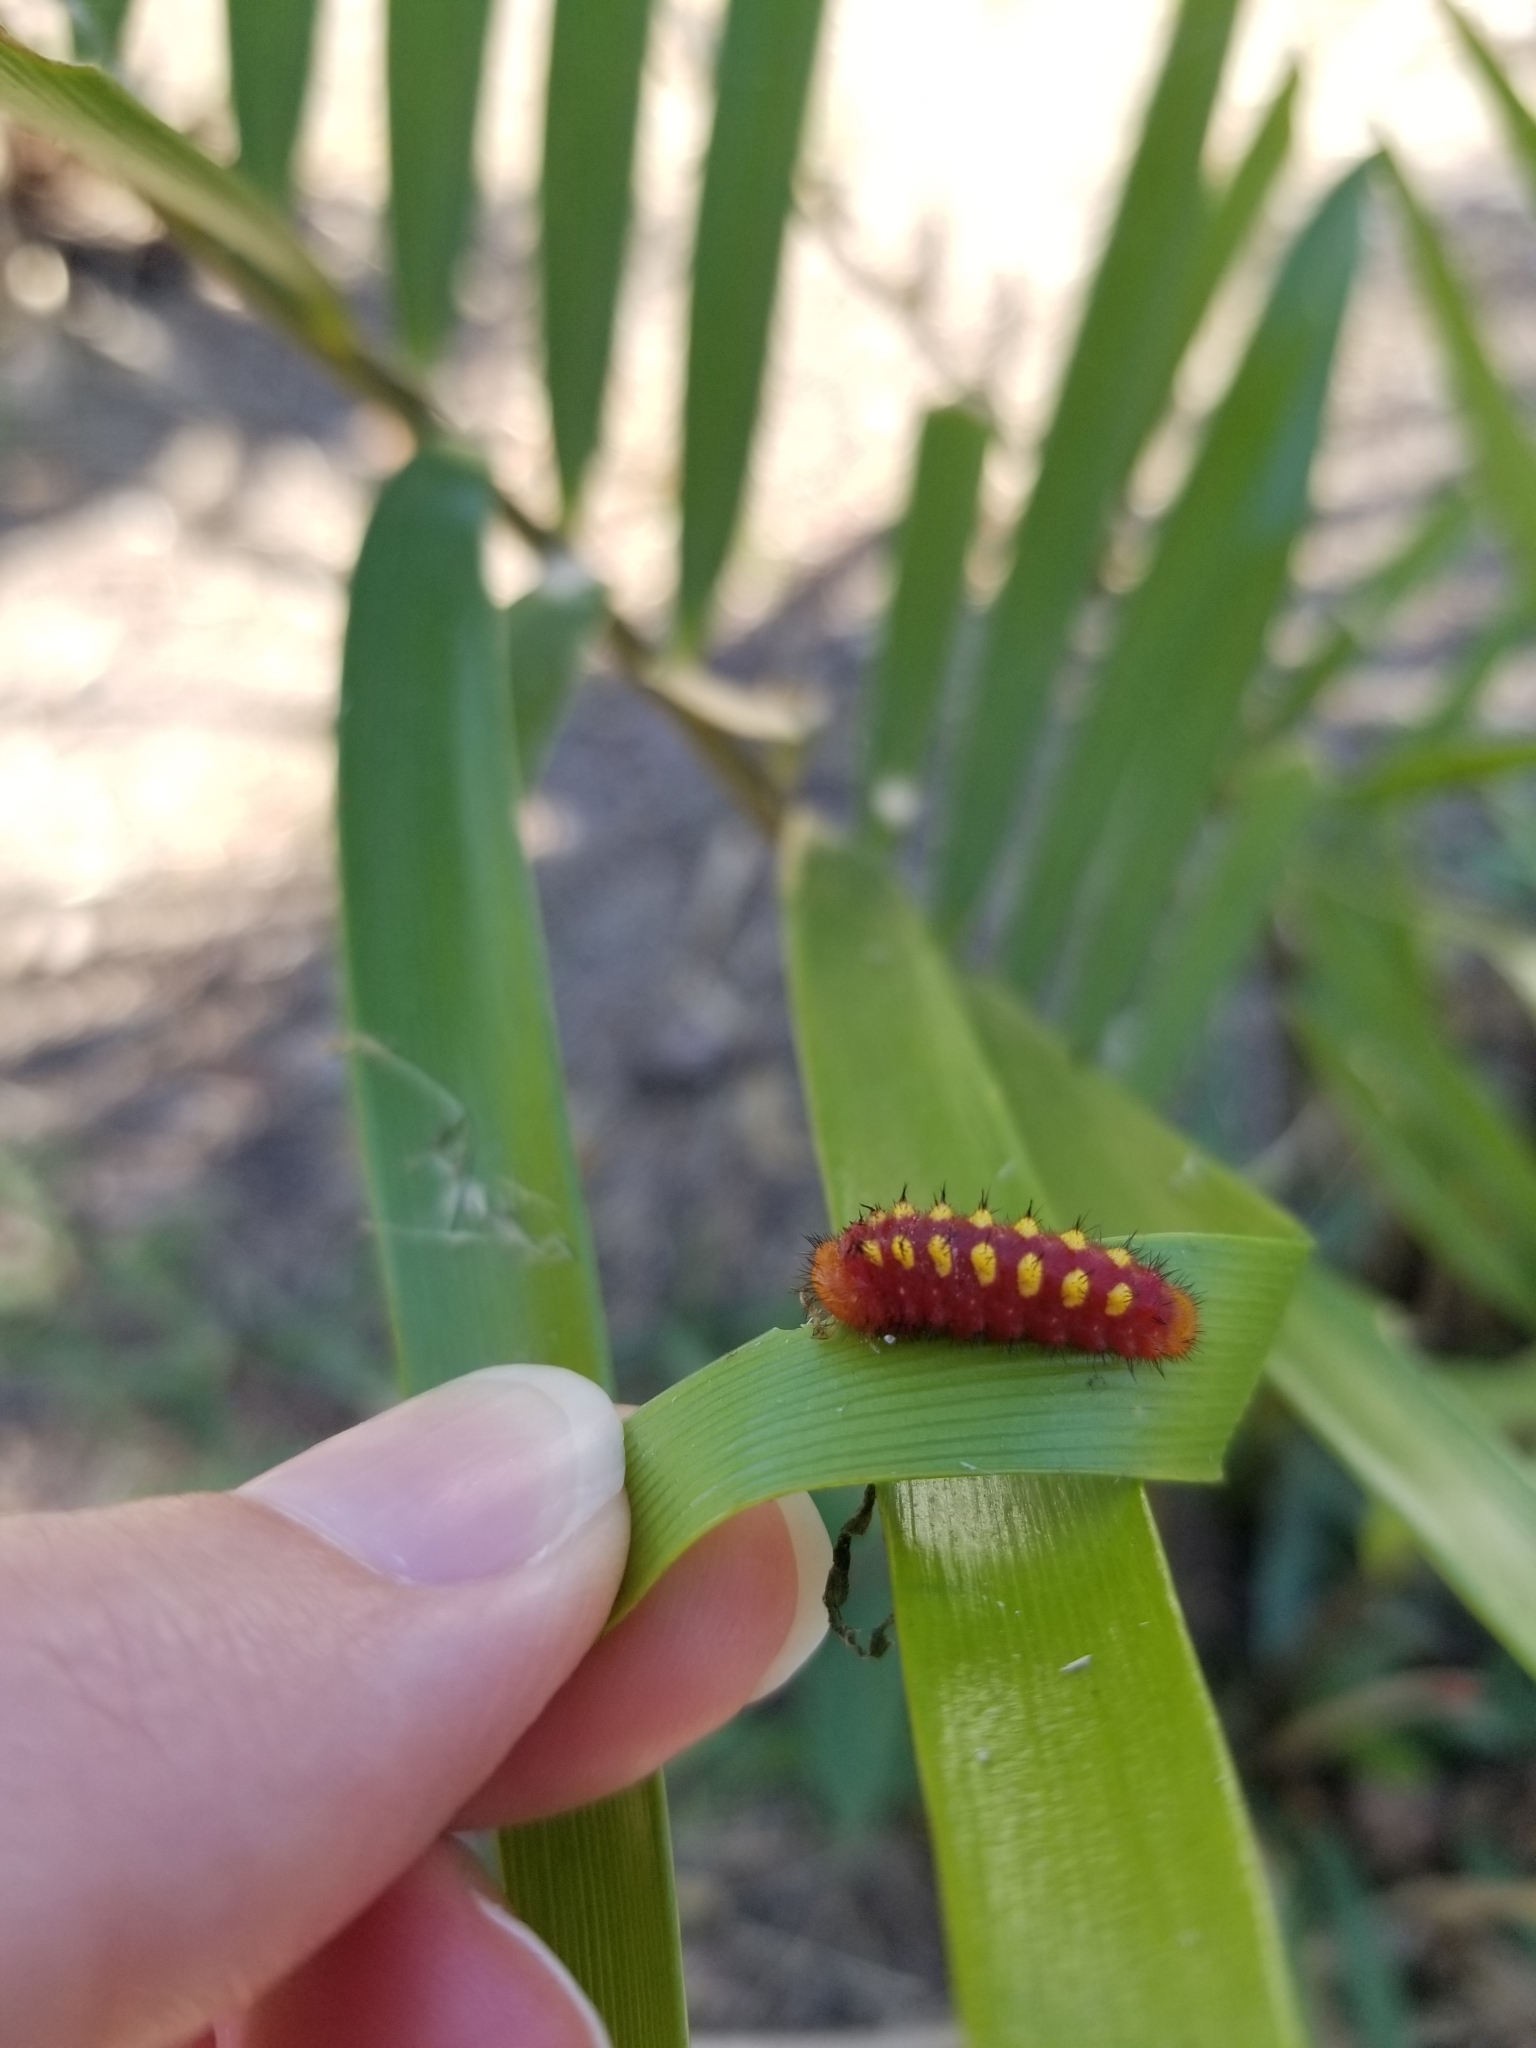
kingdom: Animalia
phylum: Arthropoda
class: Insecta
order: Lepidoptera
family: Lycaenidae
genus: Eumaeus
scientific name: Eumaeus atala
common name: Atala
